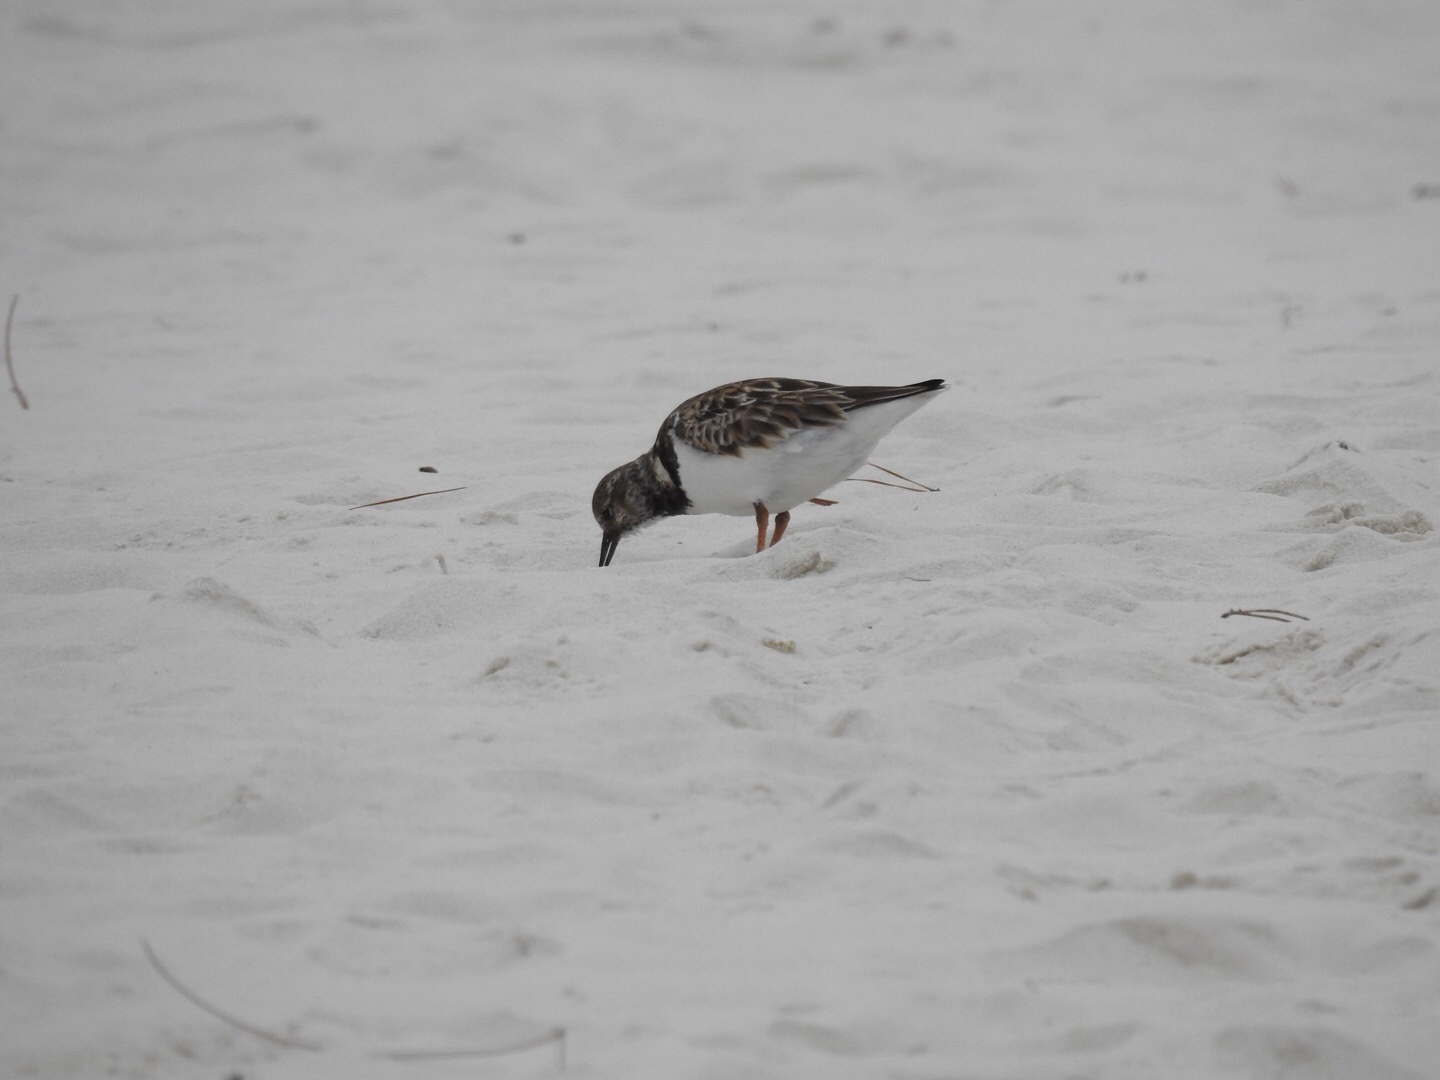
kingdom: Animalia
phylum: Chordata
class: Aves
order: Charadriiformes
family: Scolopacidae
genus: Arenaria
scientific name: Arenaria interpres
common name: Ruddy turnstone
